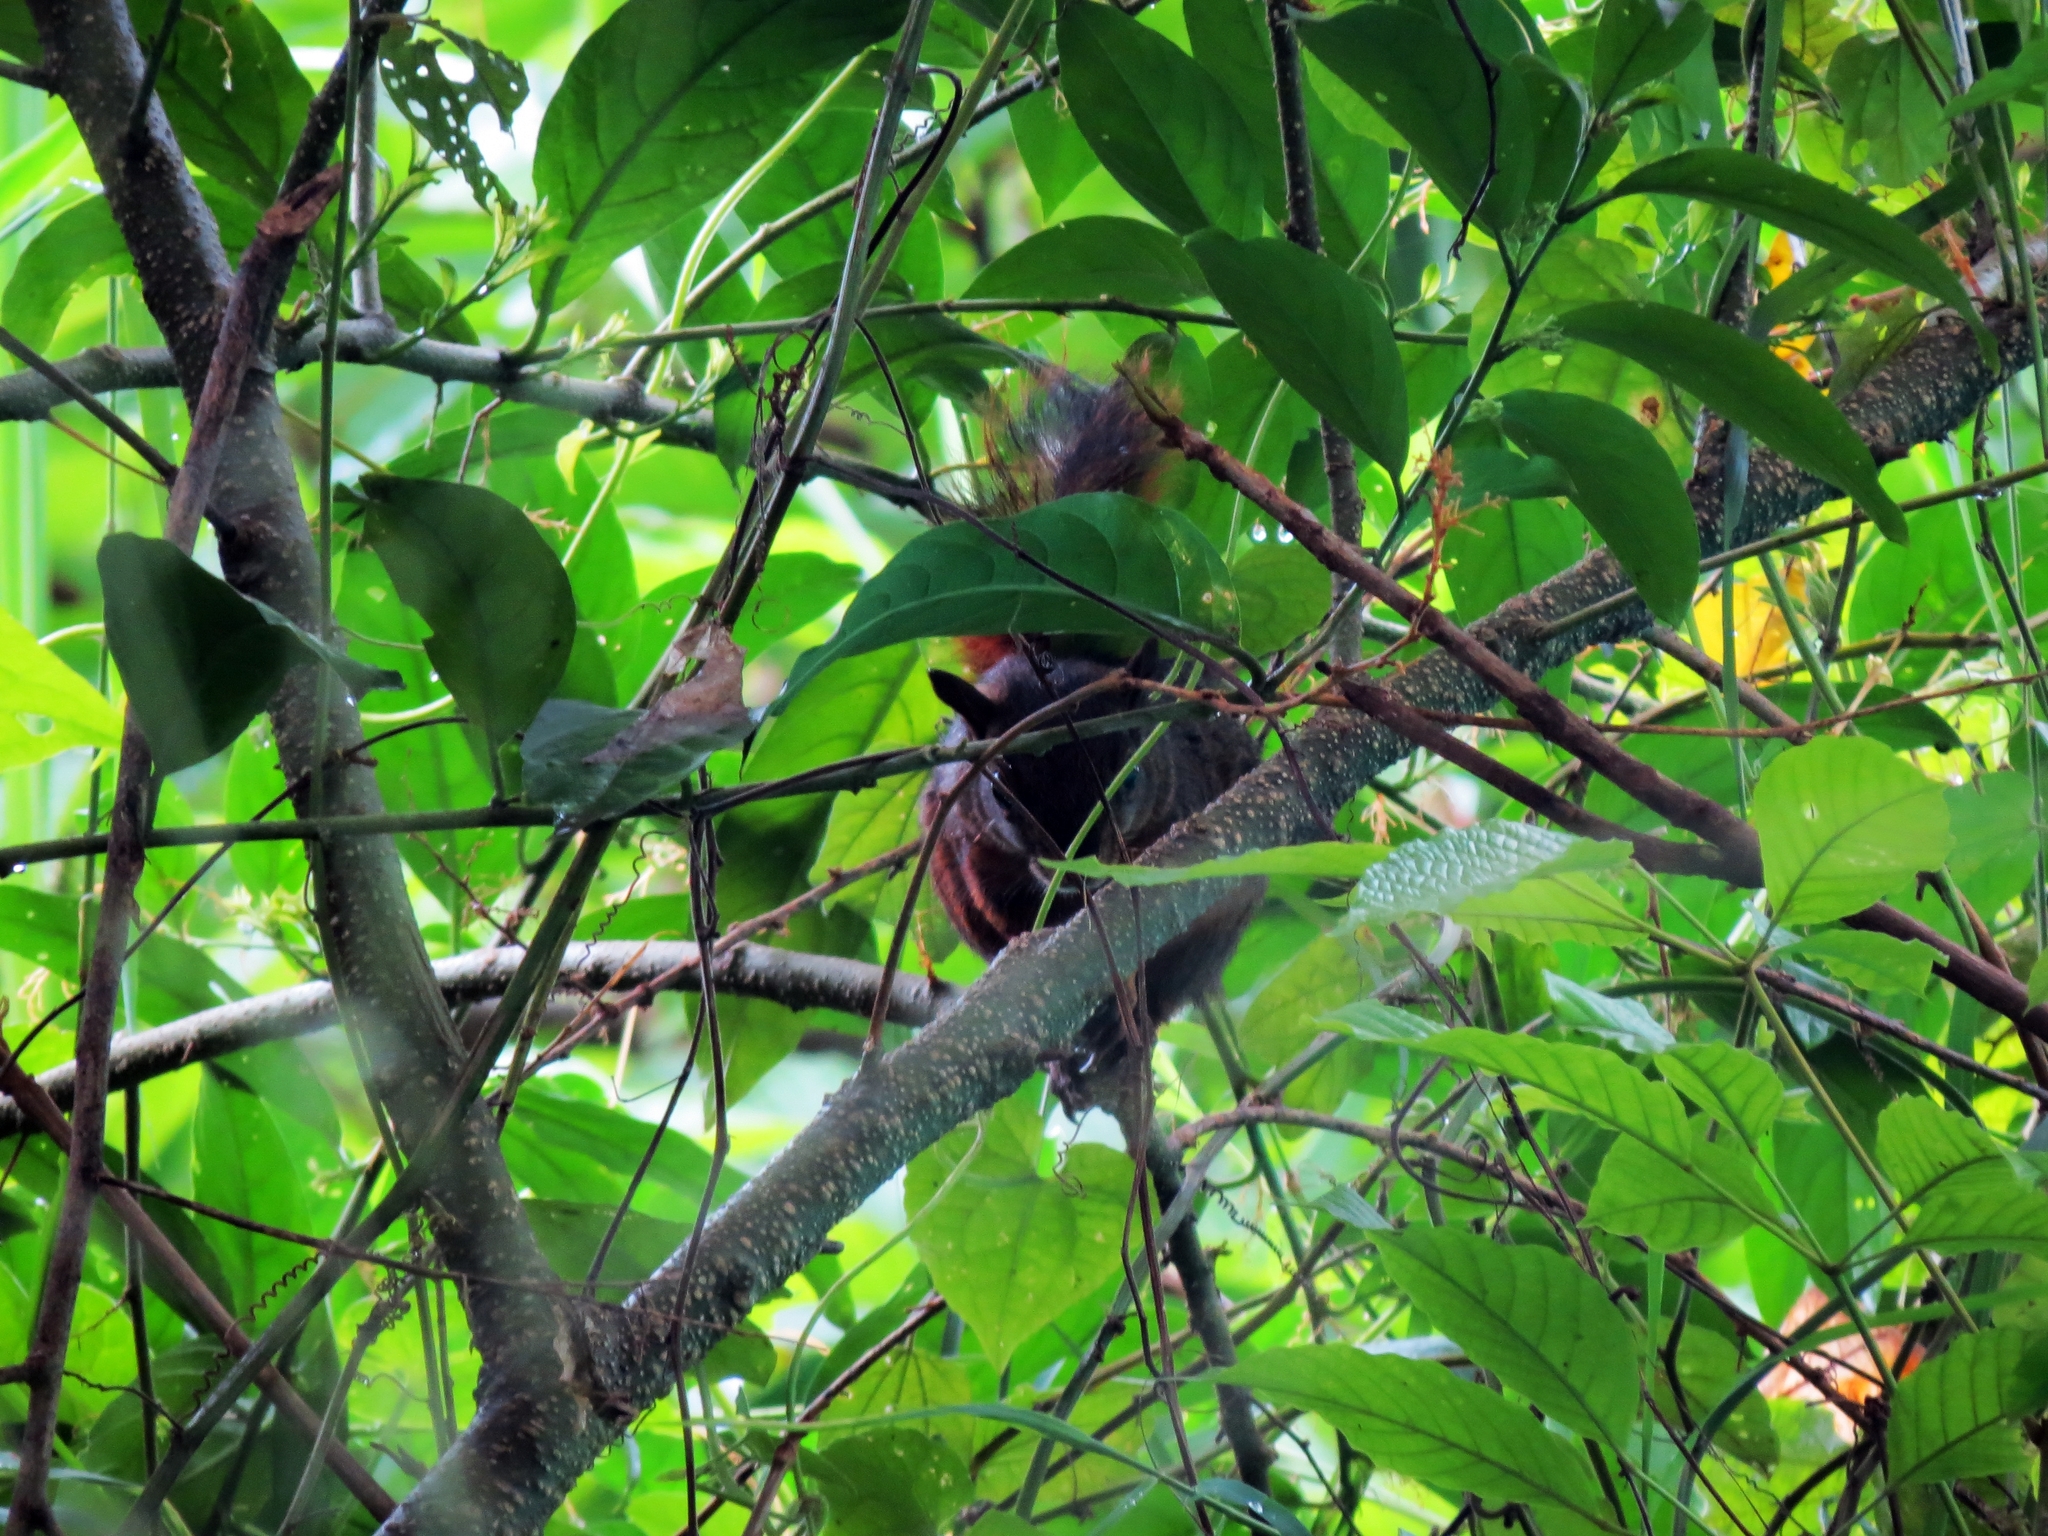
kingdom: Animalia
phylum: Chordata
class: Mammalia
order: Rodentia
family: Sciuridae
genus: Sciurus
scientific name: Sciurus granatensis
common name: Red-tailed squirrel
